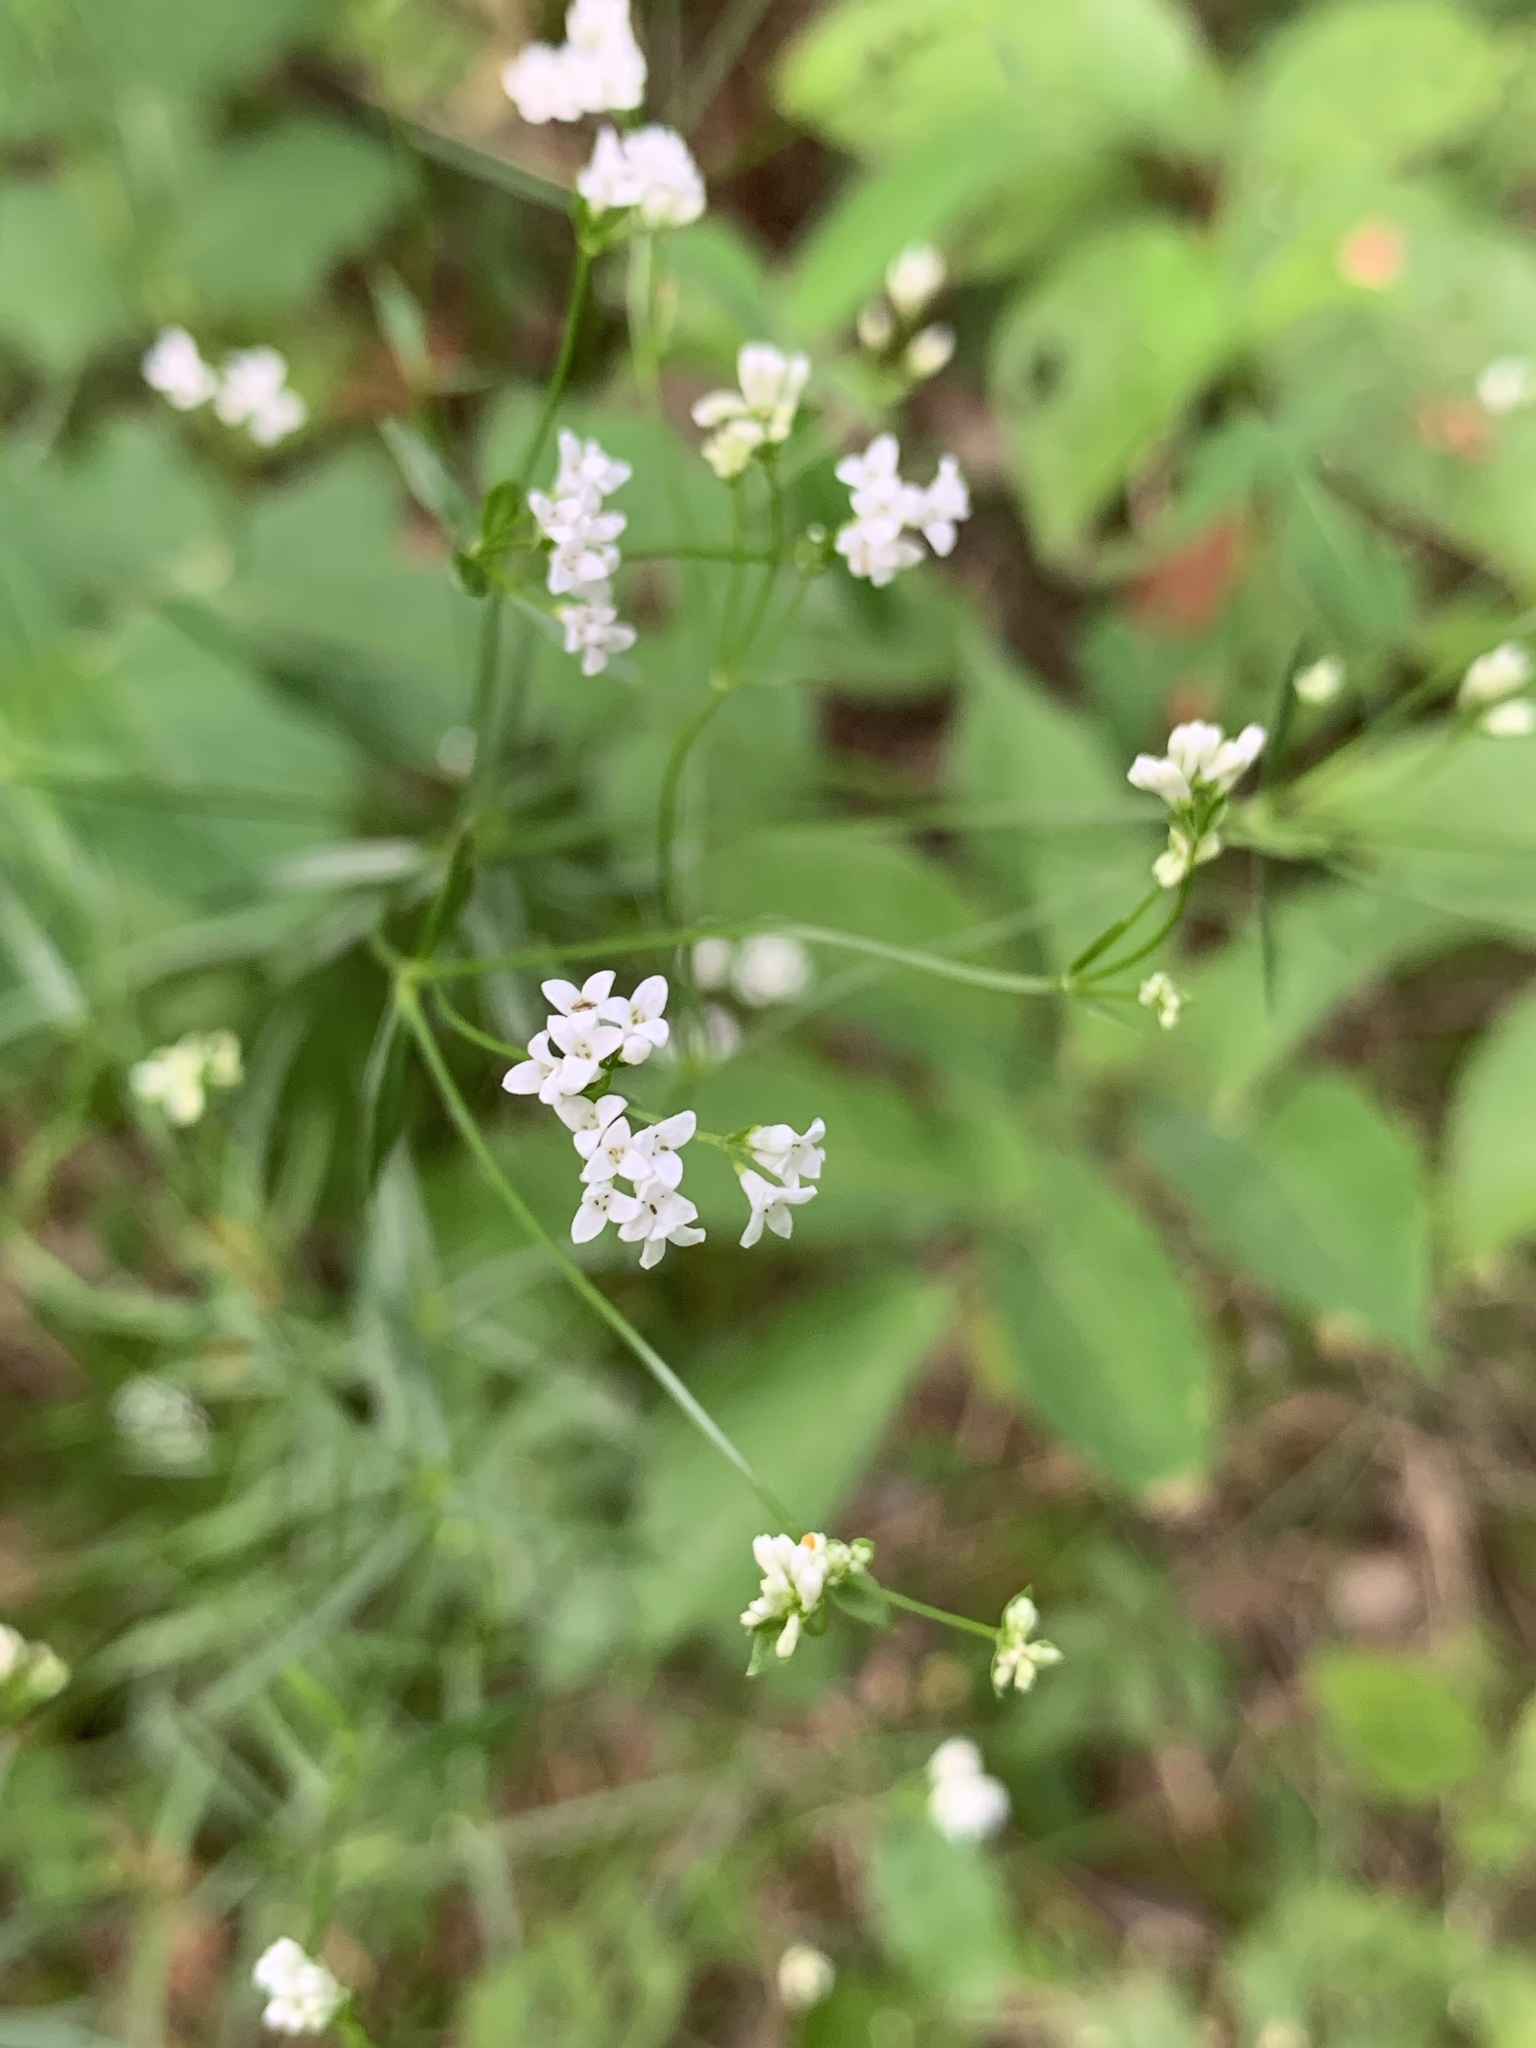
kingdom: Plantae
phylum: Tracheophyta
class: Magnoliopsida
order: Gentianales
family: Rubiaceae
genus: Asperula
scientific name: Asperula tinctoria
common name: Dyer's woodruff
